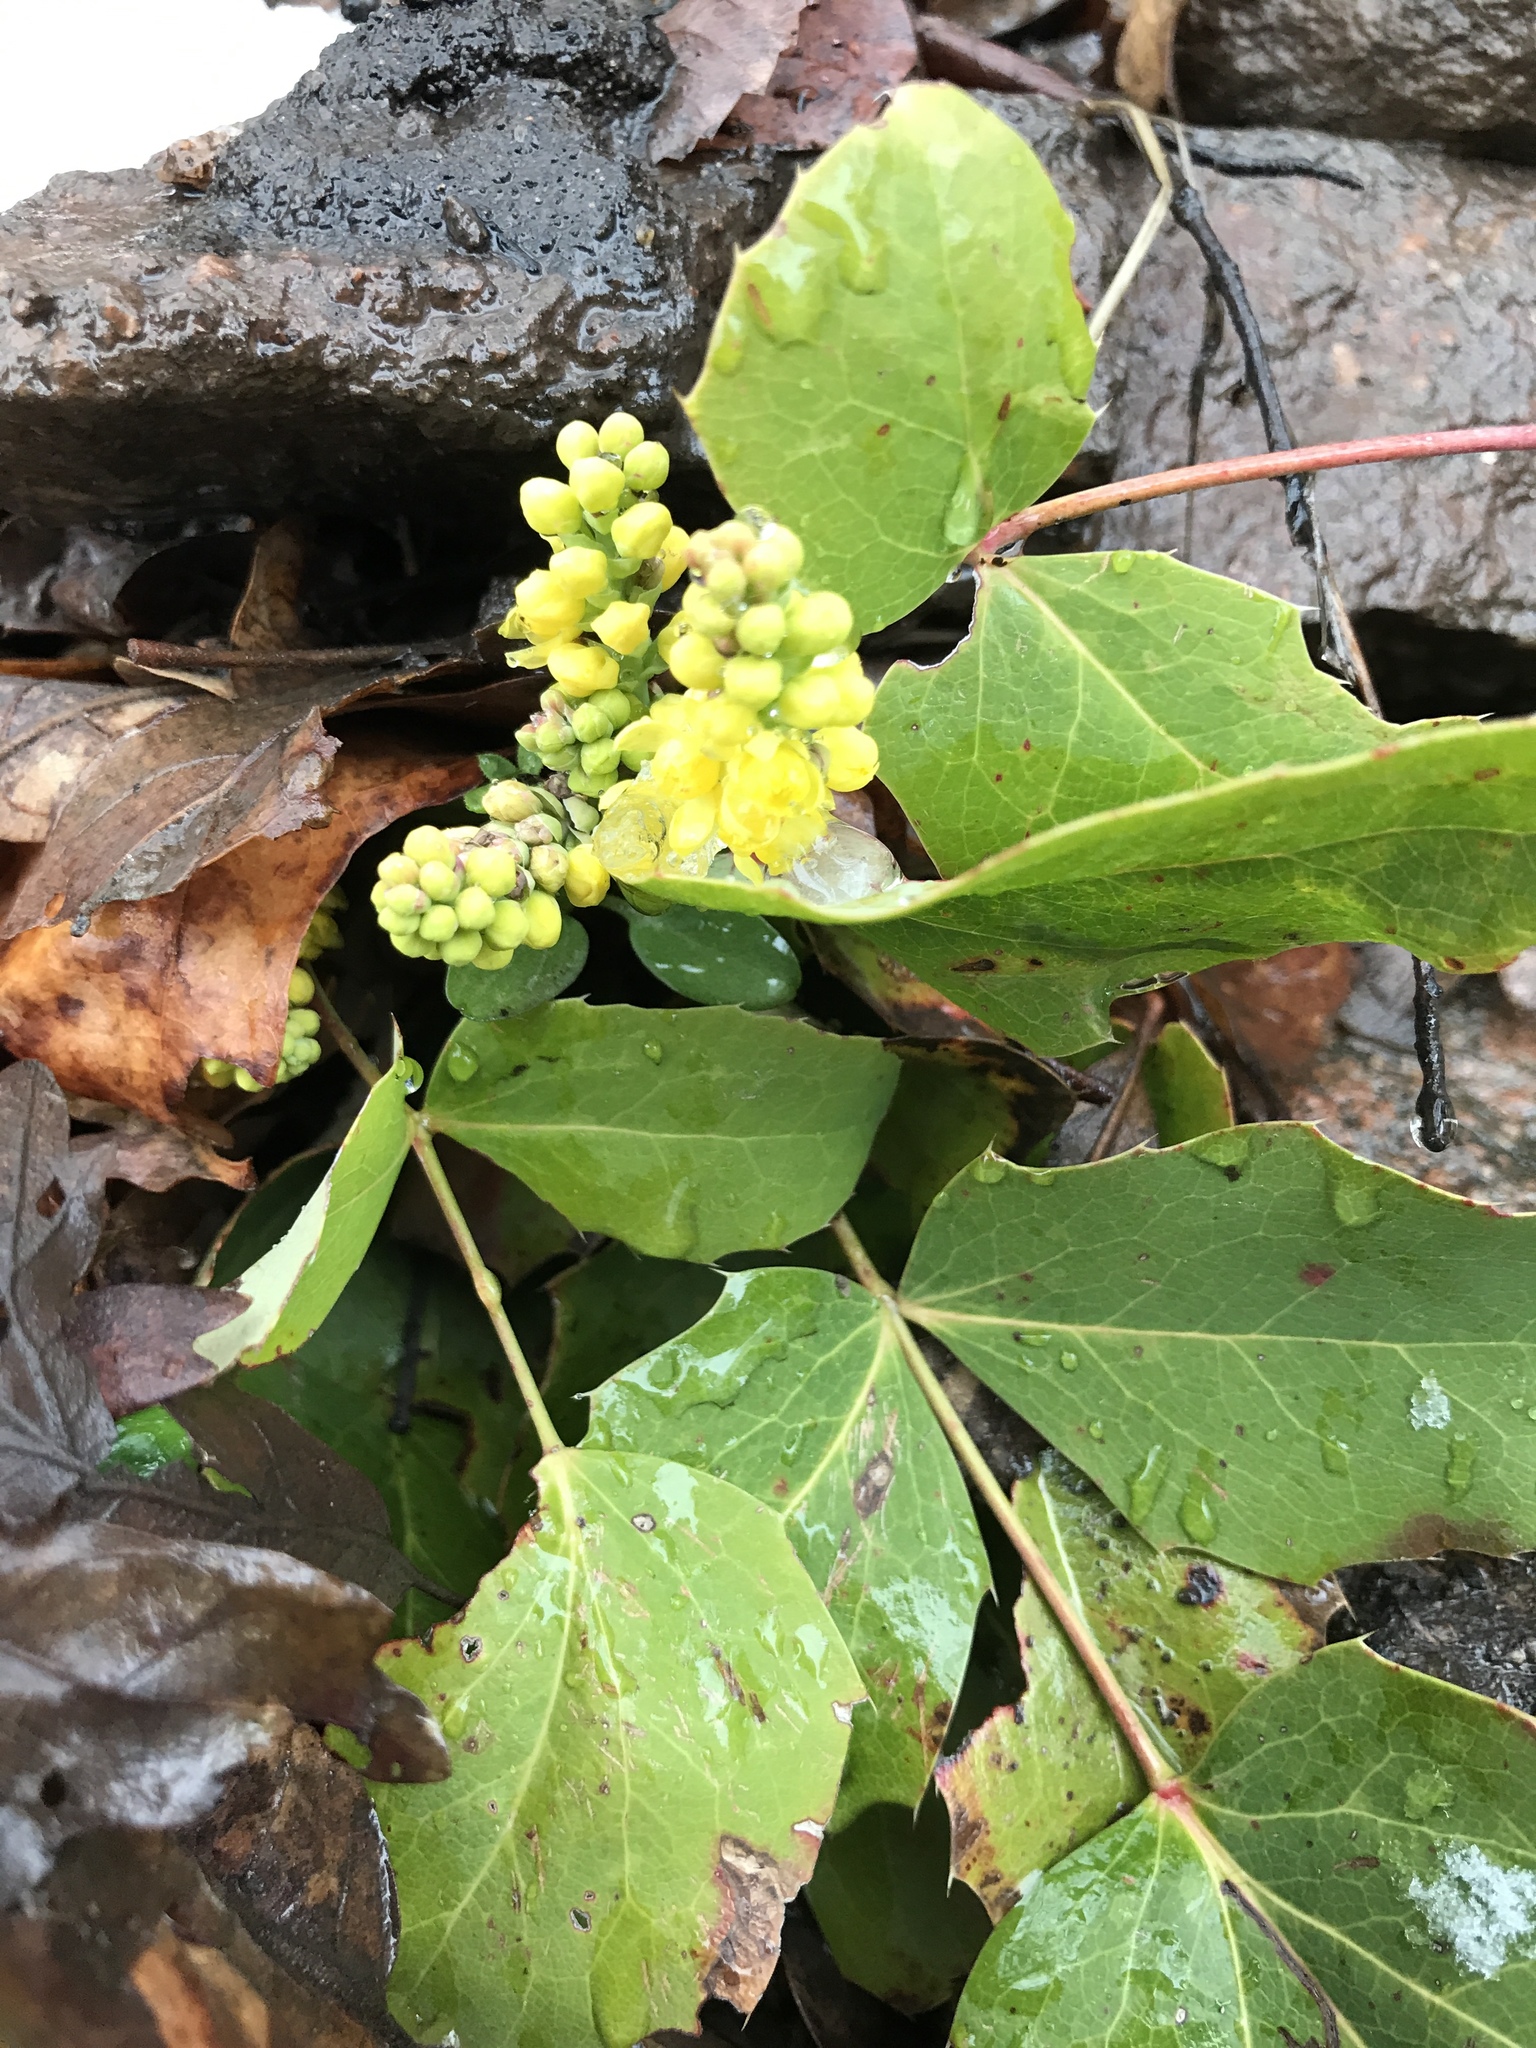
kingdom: Plantae
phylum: Tracheophyta
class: Magnoliopsida
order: Ranunculales
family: Berberidaceae
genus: Mahonia
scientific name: Mahonia repens
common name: Creeping oregon-grape
